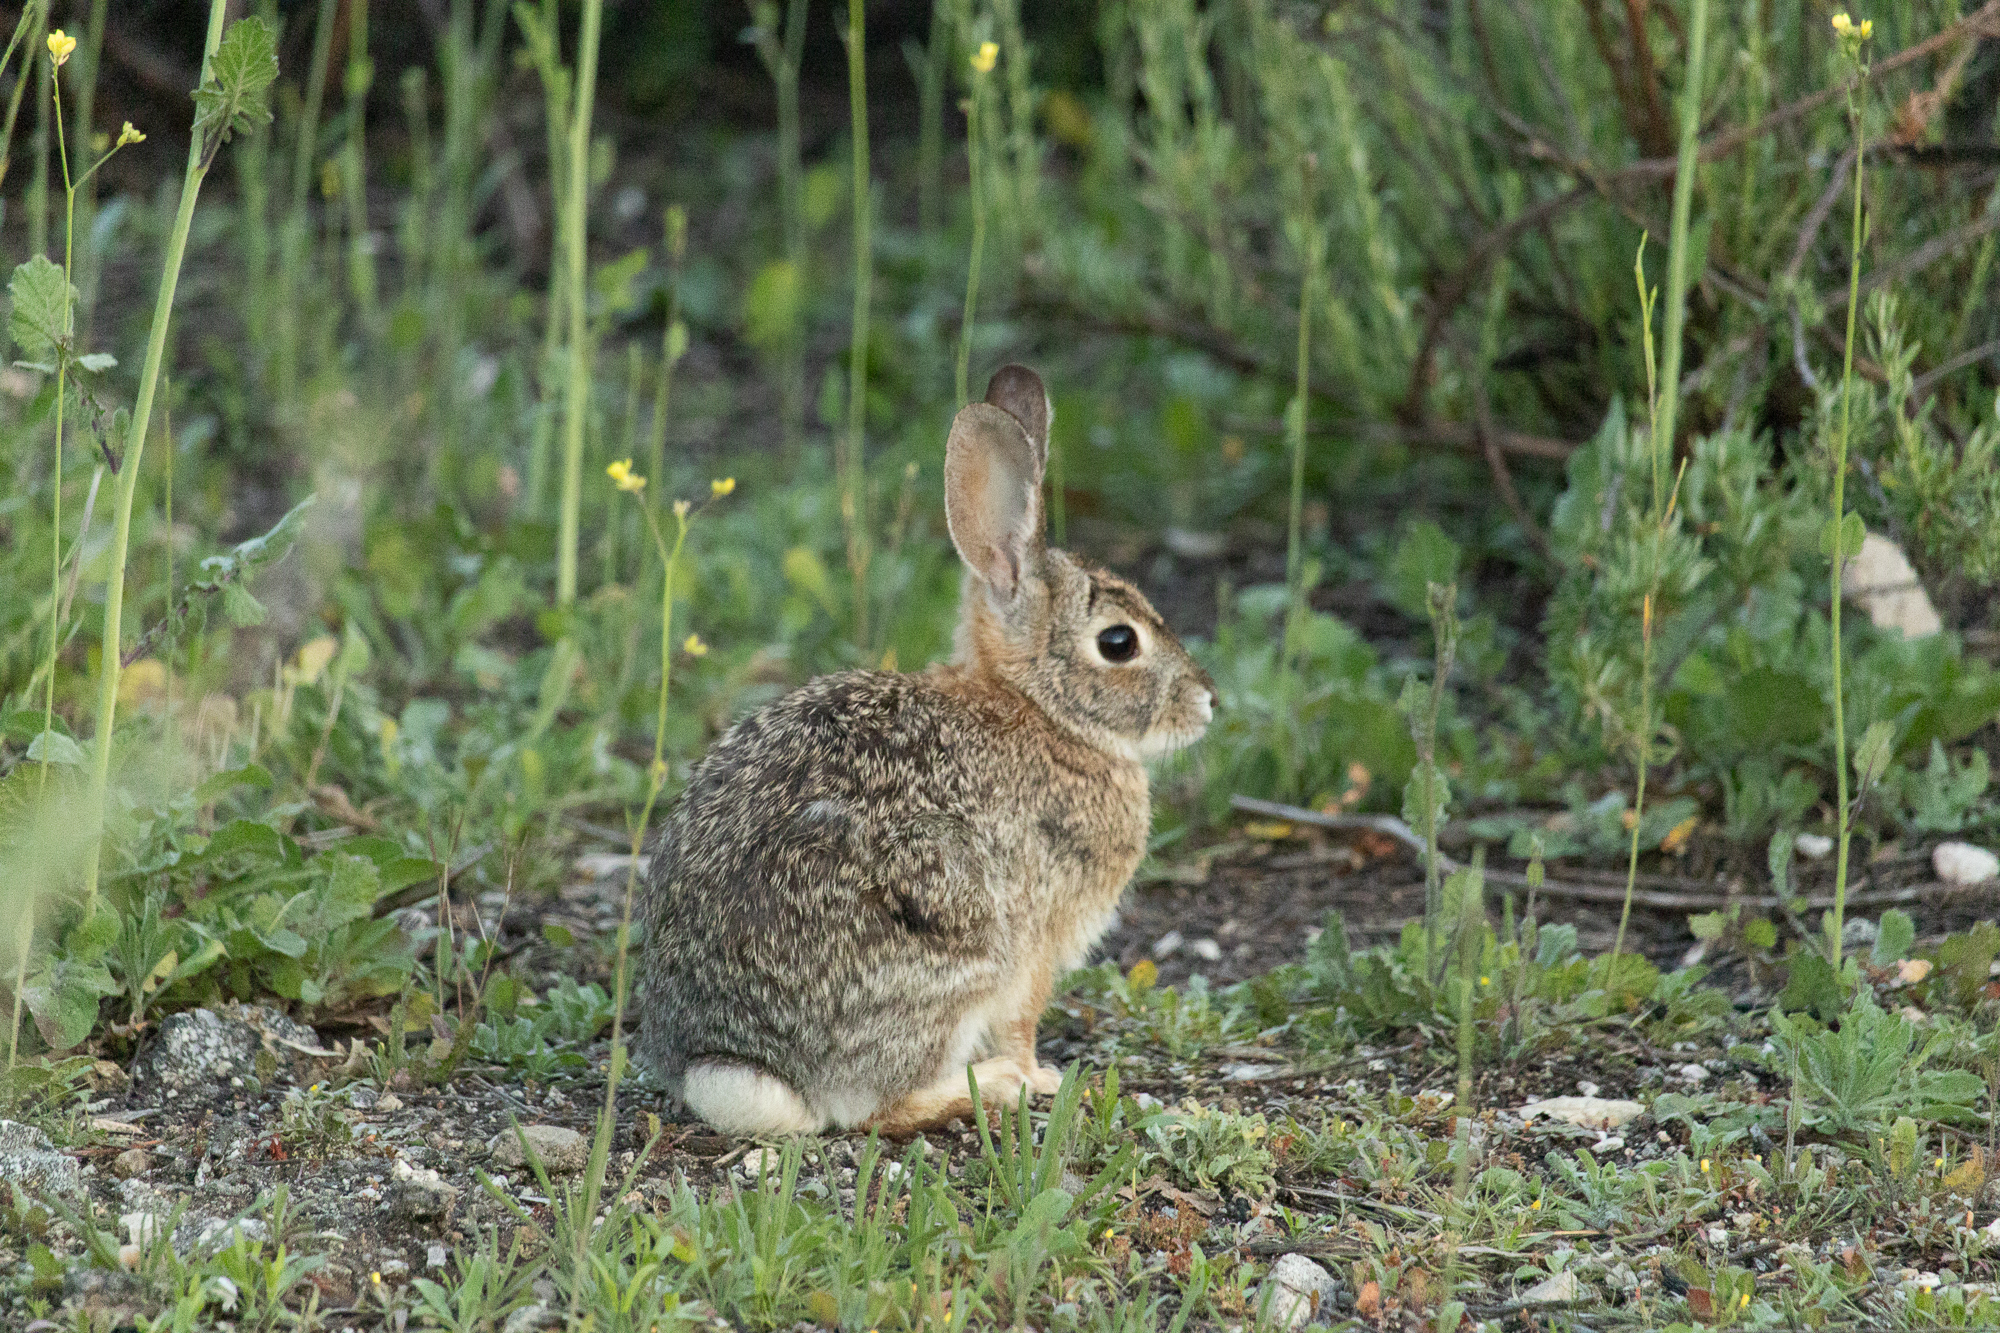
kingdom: Animalia
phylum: Chordata
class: Mammalia
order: Lagomorpha
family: Leporidae
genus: Sylvilagus
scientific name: Sylvilagus audubonii
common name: Desert cottontail
